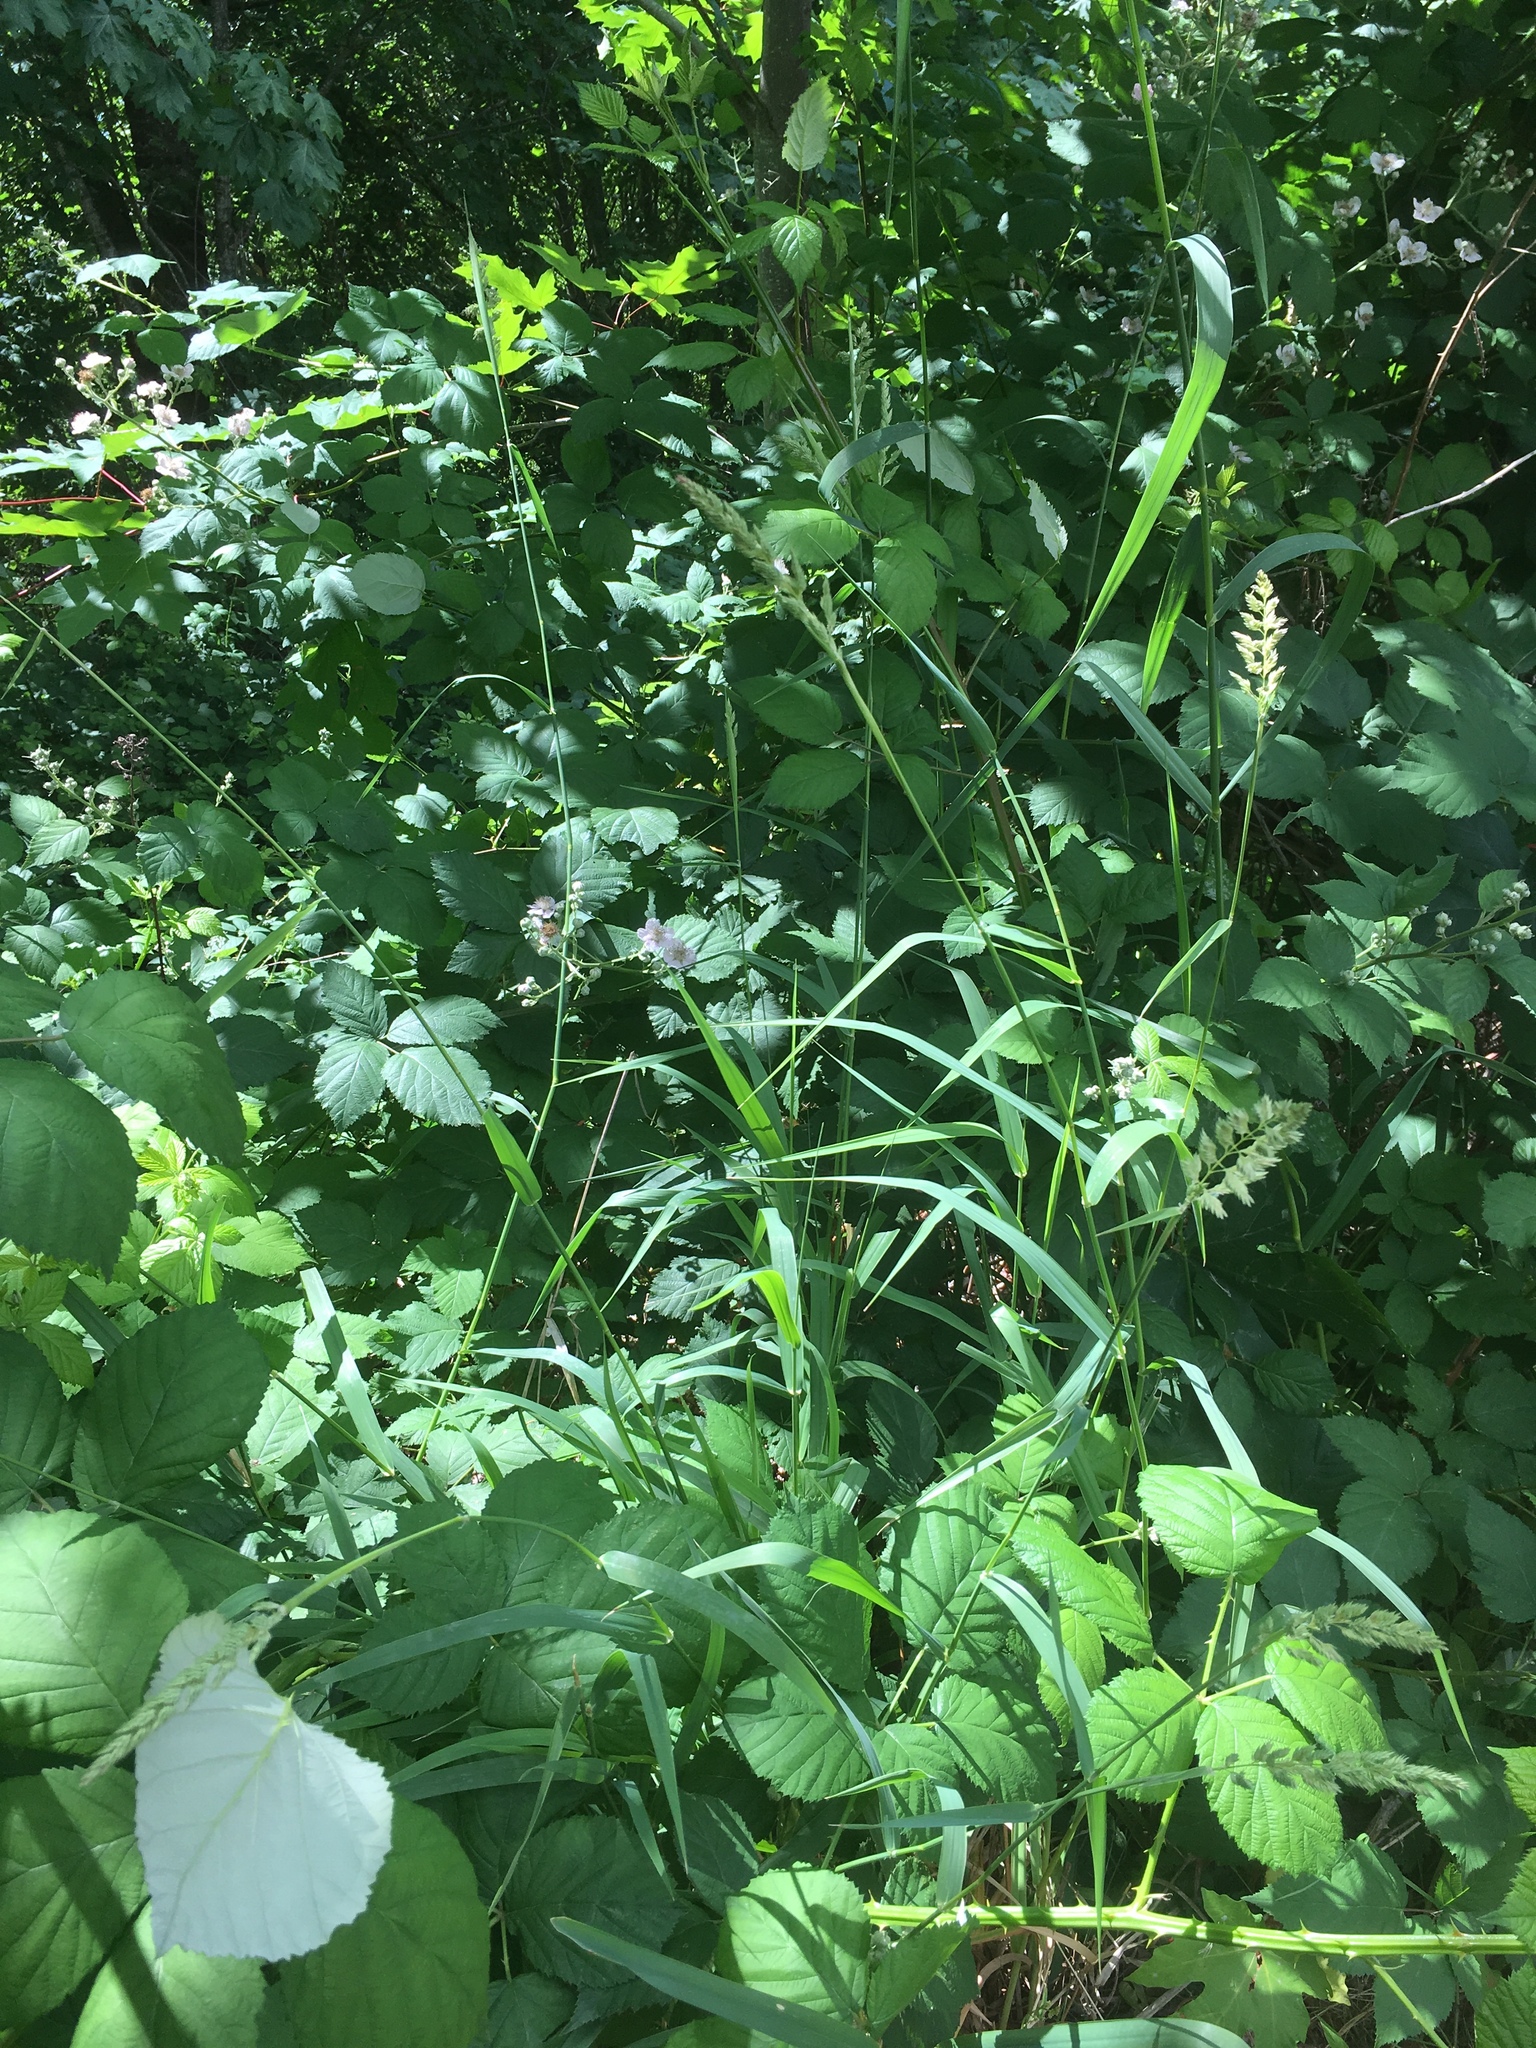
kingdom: Plantae
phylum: Tracheophyta
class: Liliopsida
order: Poales
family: Poaceae
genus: Phalaris
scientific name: Phalaris arundinacea
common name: Reed canary-grass
